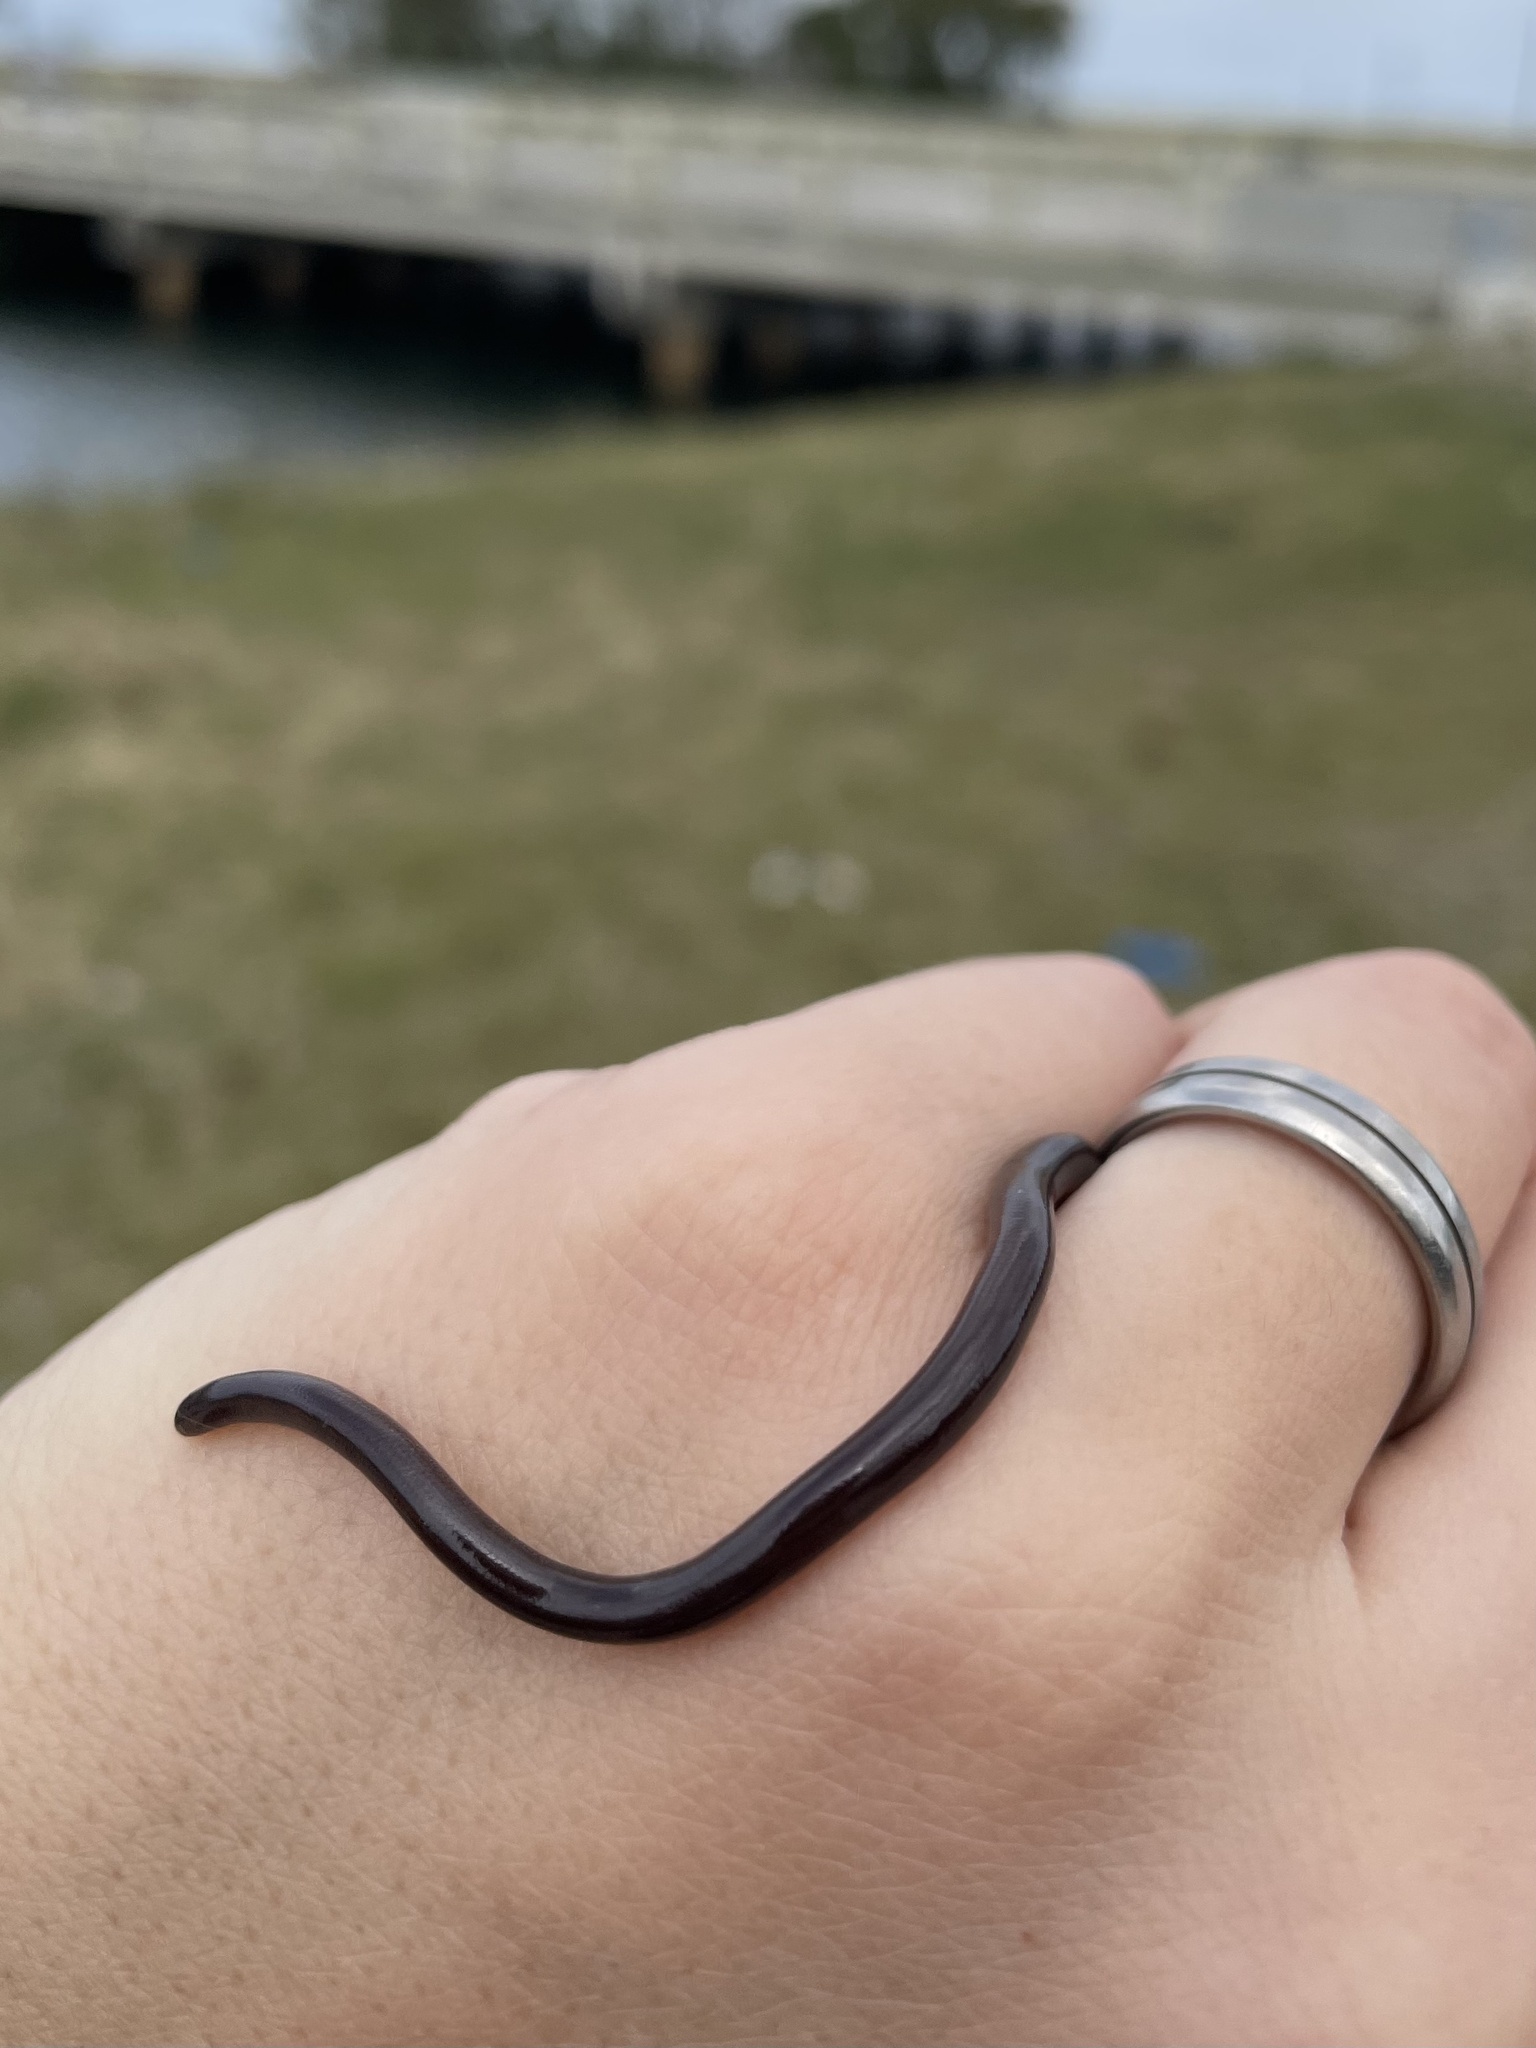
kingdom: Animalia
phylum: Chordata
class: Squamata
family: Typhlopidae
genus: Indotyphlops
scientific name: Indotyphlops braminus
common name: Brahminy blindsnake
